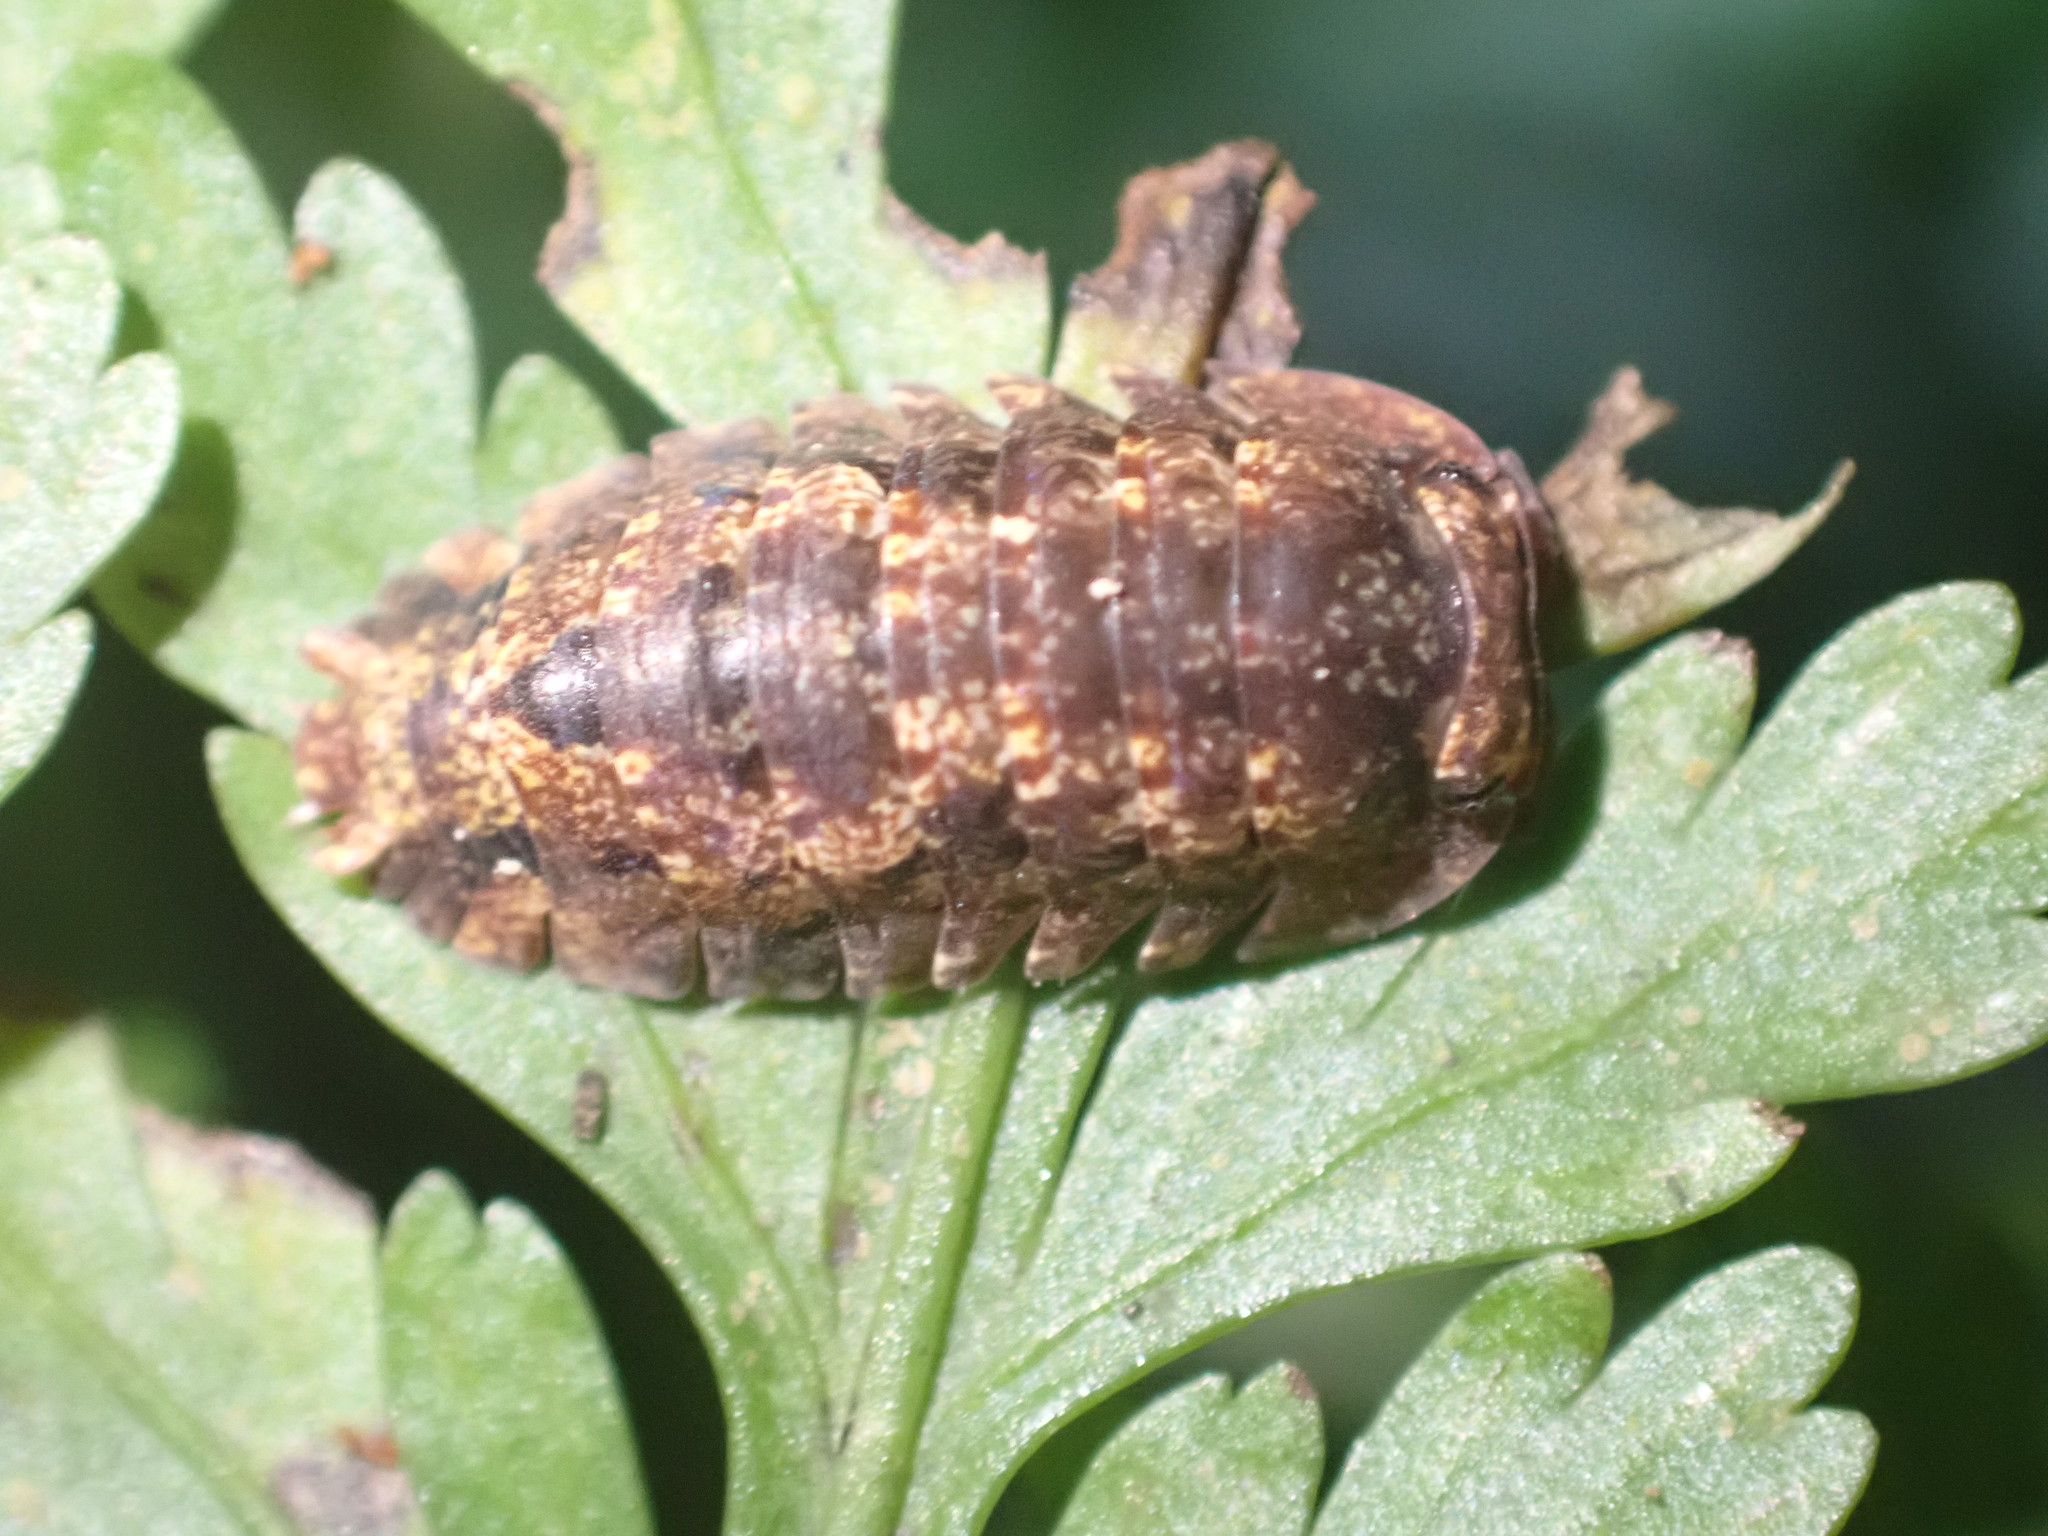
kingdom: Animalia
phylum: Arthropoda
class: Malacostraca
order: Isopoda
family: Armadillidae
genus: Cubaris
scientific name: Cubaris tarangensis
